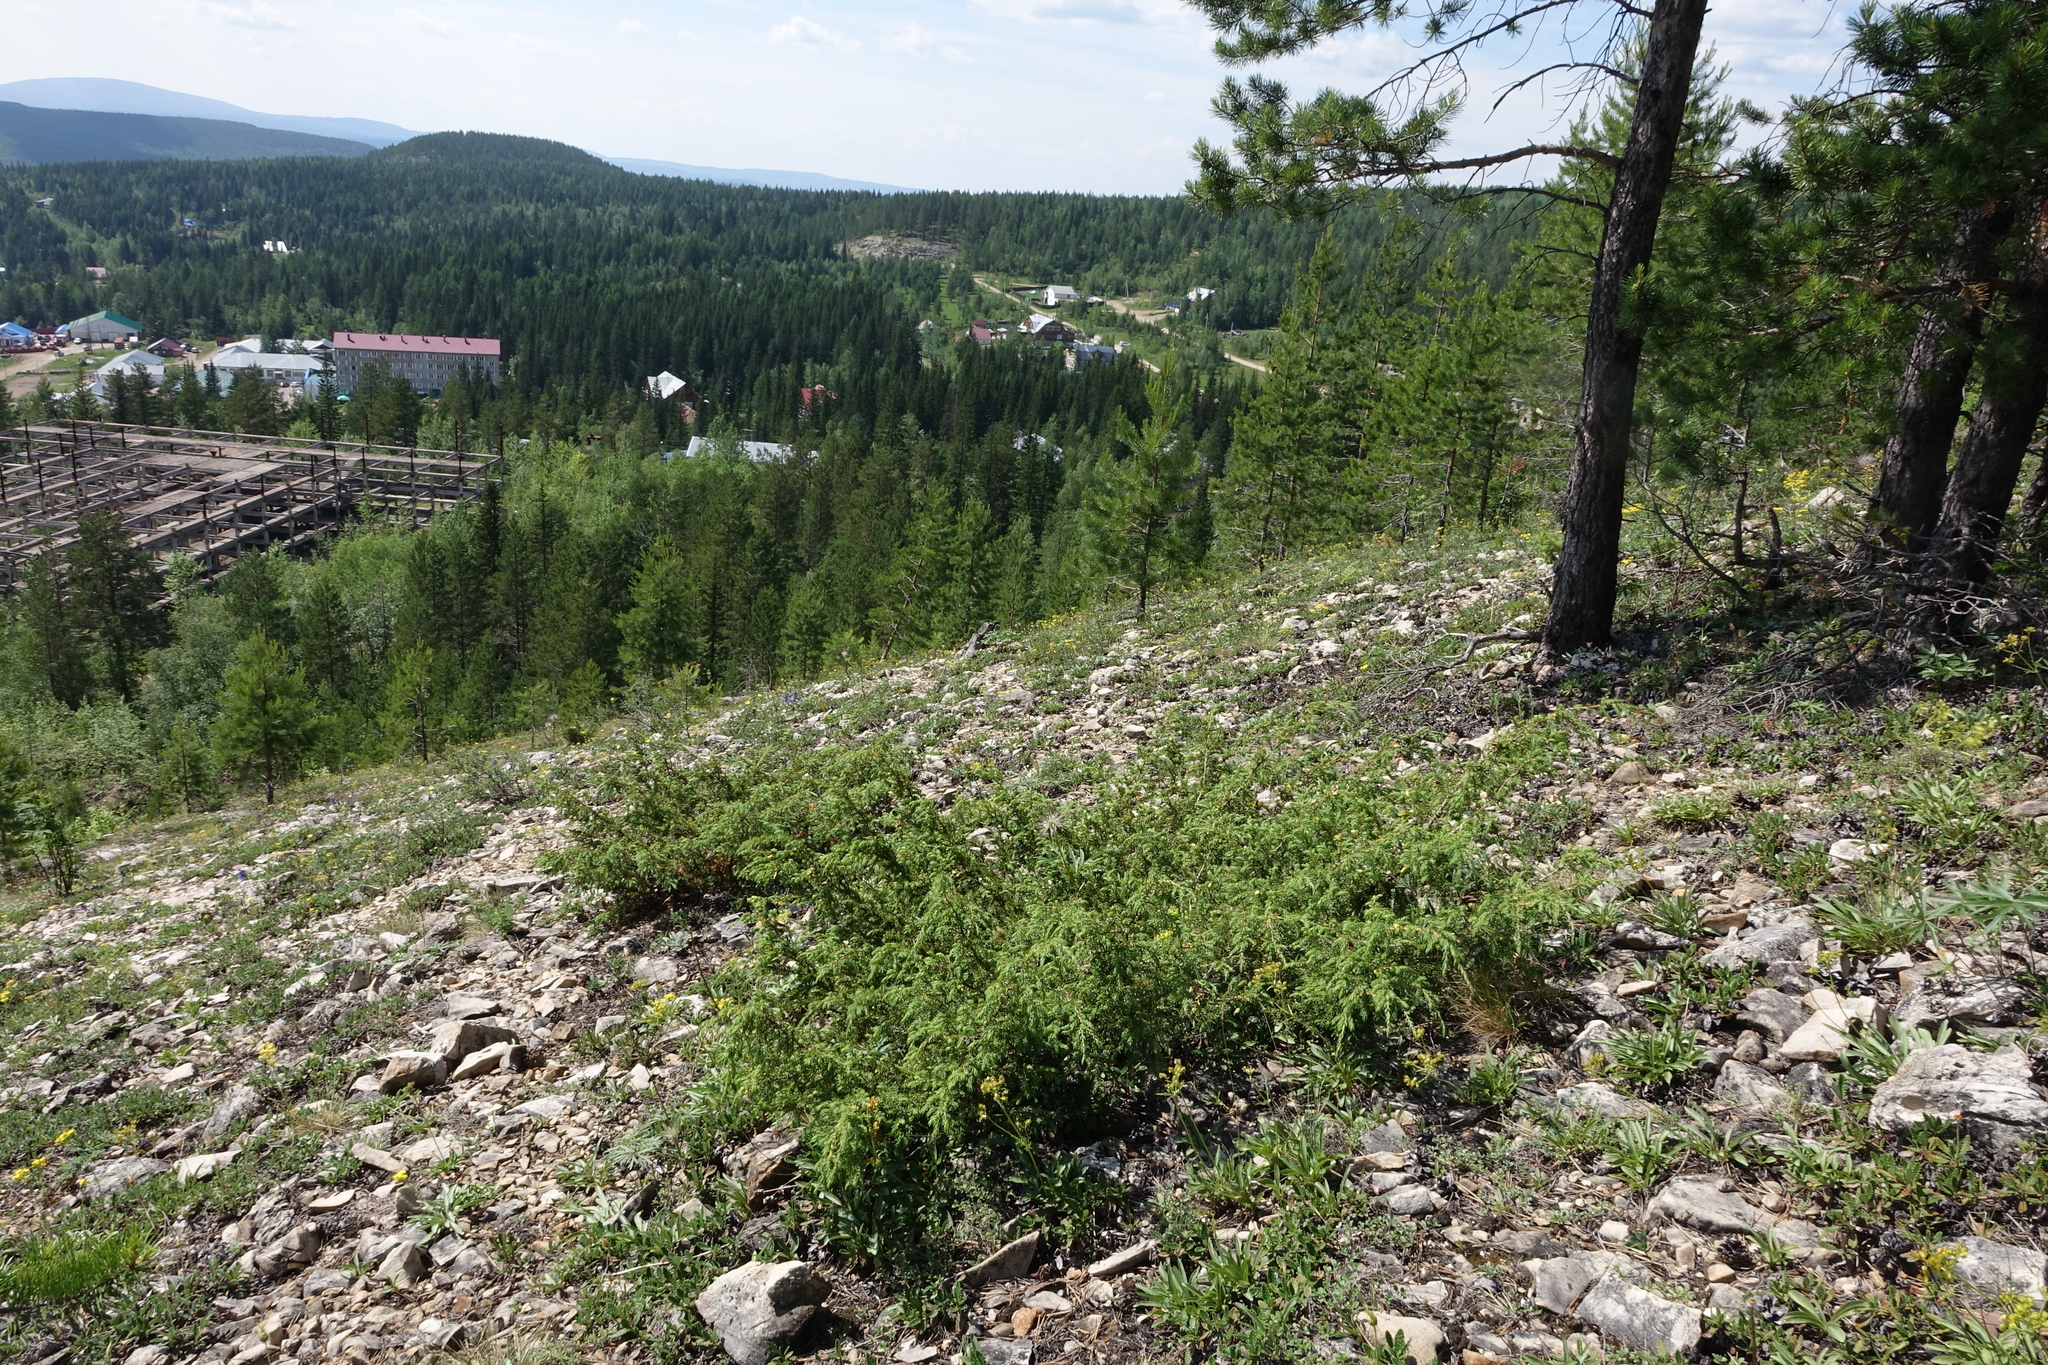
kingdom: Plantae
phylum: Tracheophyta
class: Pinopsida
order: Pinales
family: Cupressaceae
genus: Juniperus
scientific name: Juniperus communis
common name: Common juniper
